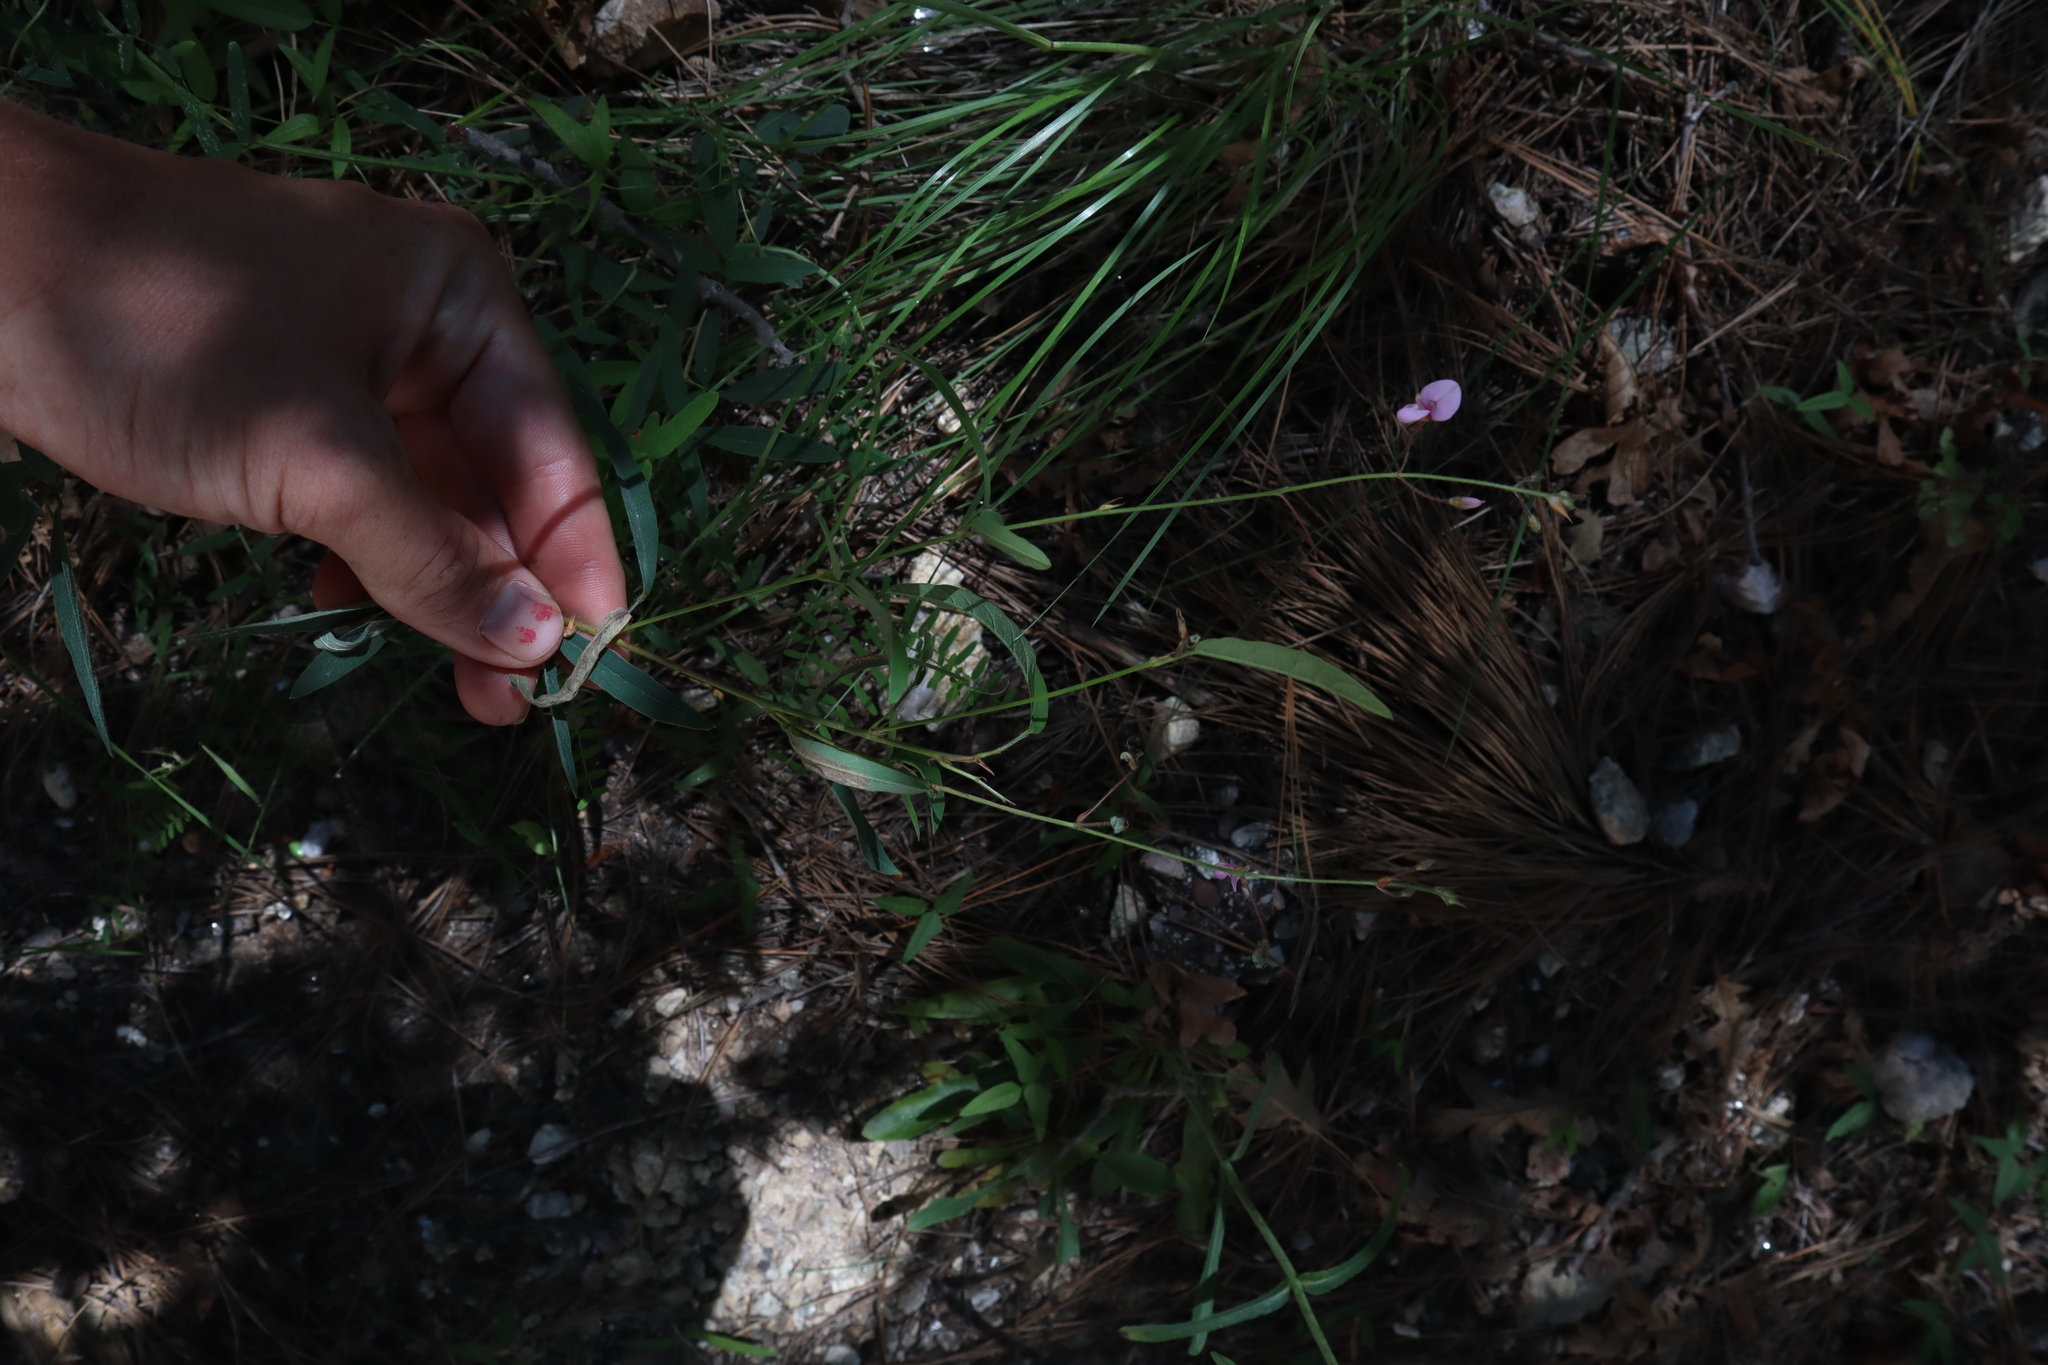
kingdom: Plantae
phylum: Tracheophyta
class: Magnoliopsida
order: Fabales
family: Fabaceae
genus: Desmodium
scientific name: Desmodium arizonicum
